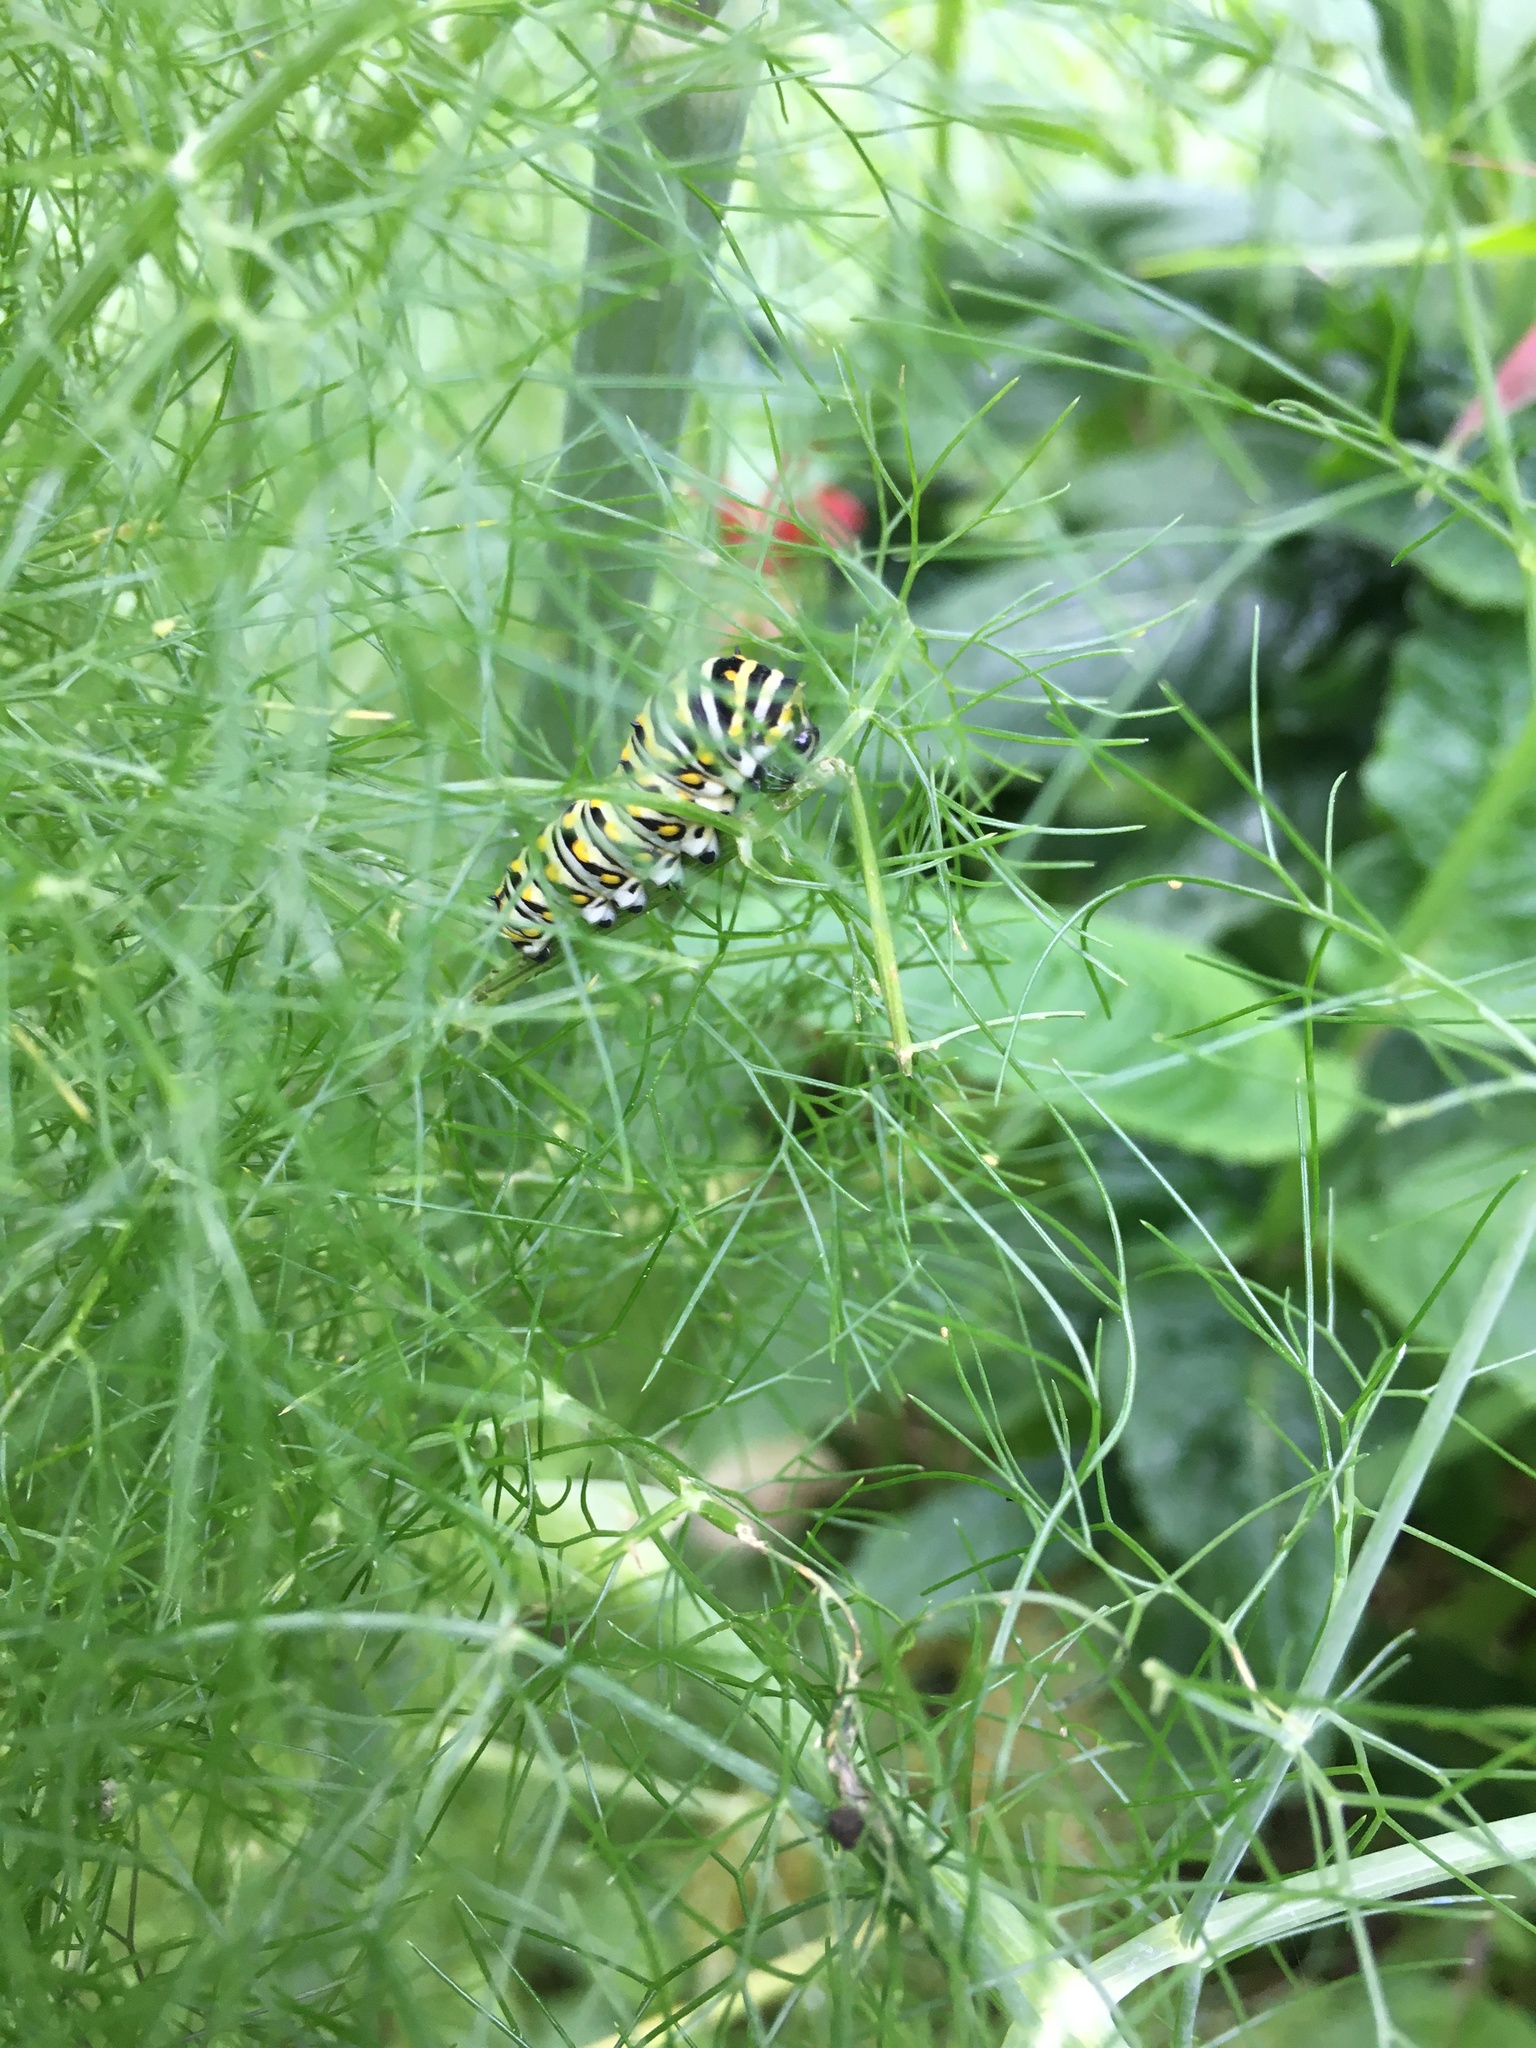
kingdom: Animalia
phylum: Arthropoda
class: Insecta
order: Lepidoptera
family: Papilionidae
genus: Papilio
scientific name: Papilio polyxenes
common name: Black swallowtail
